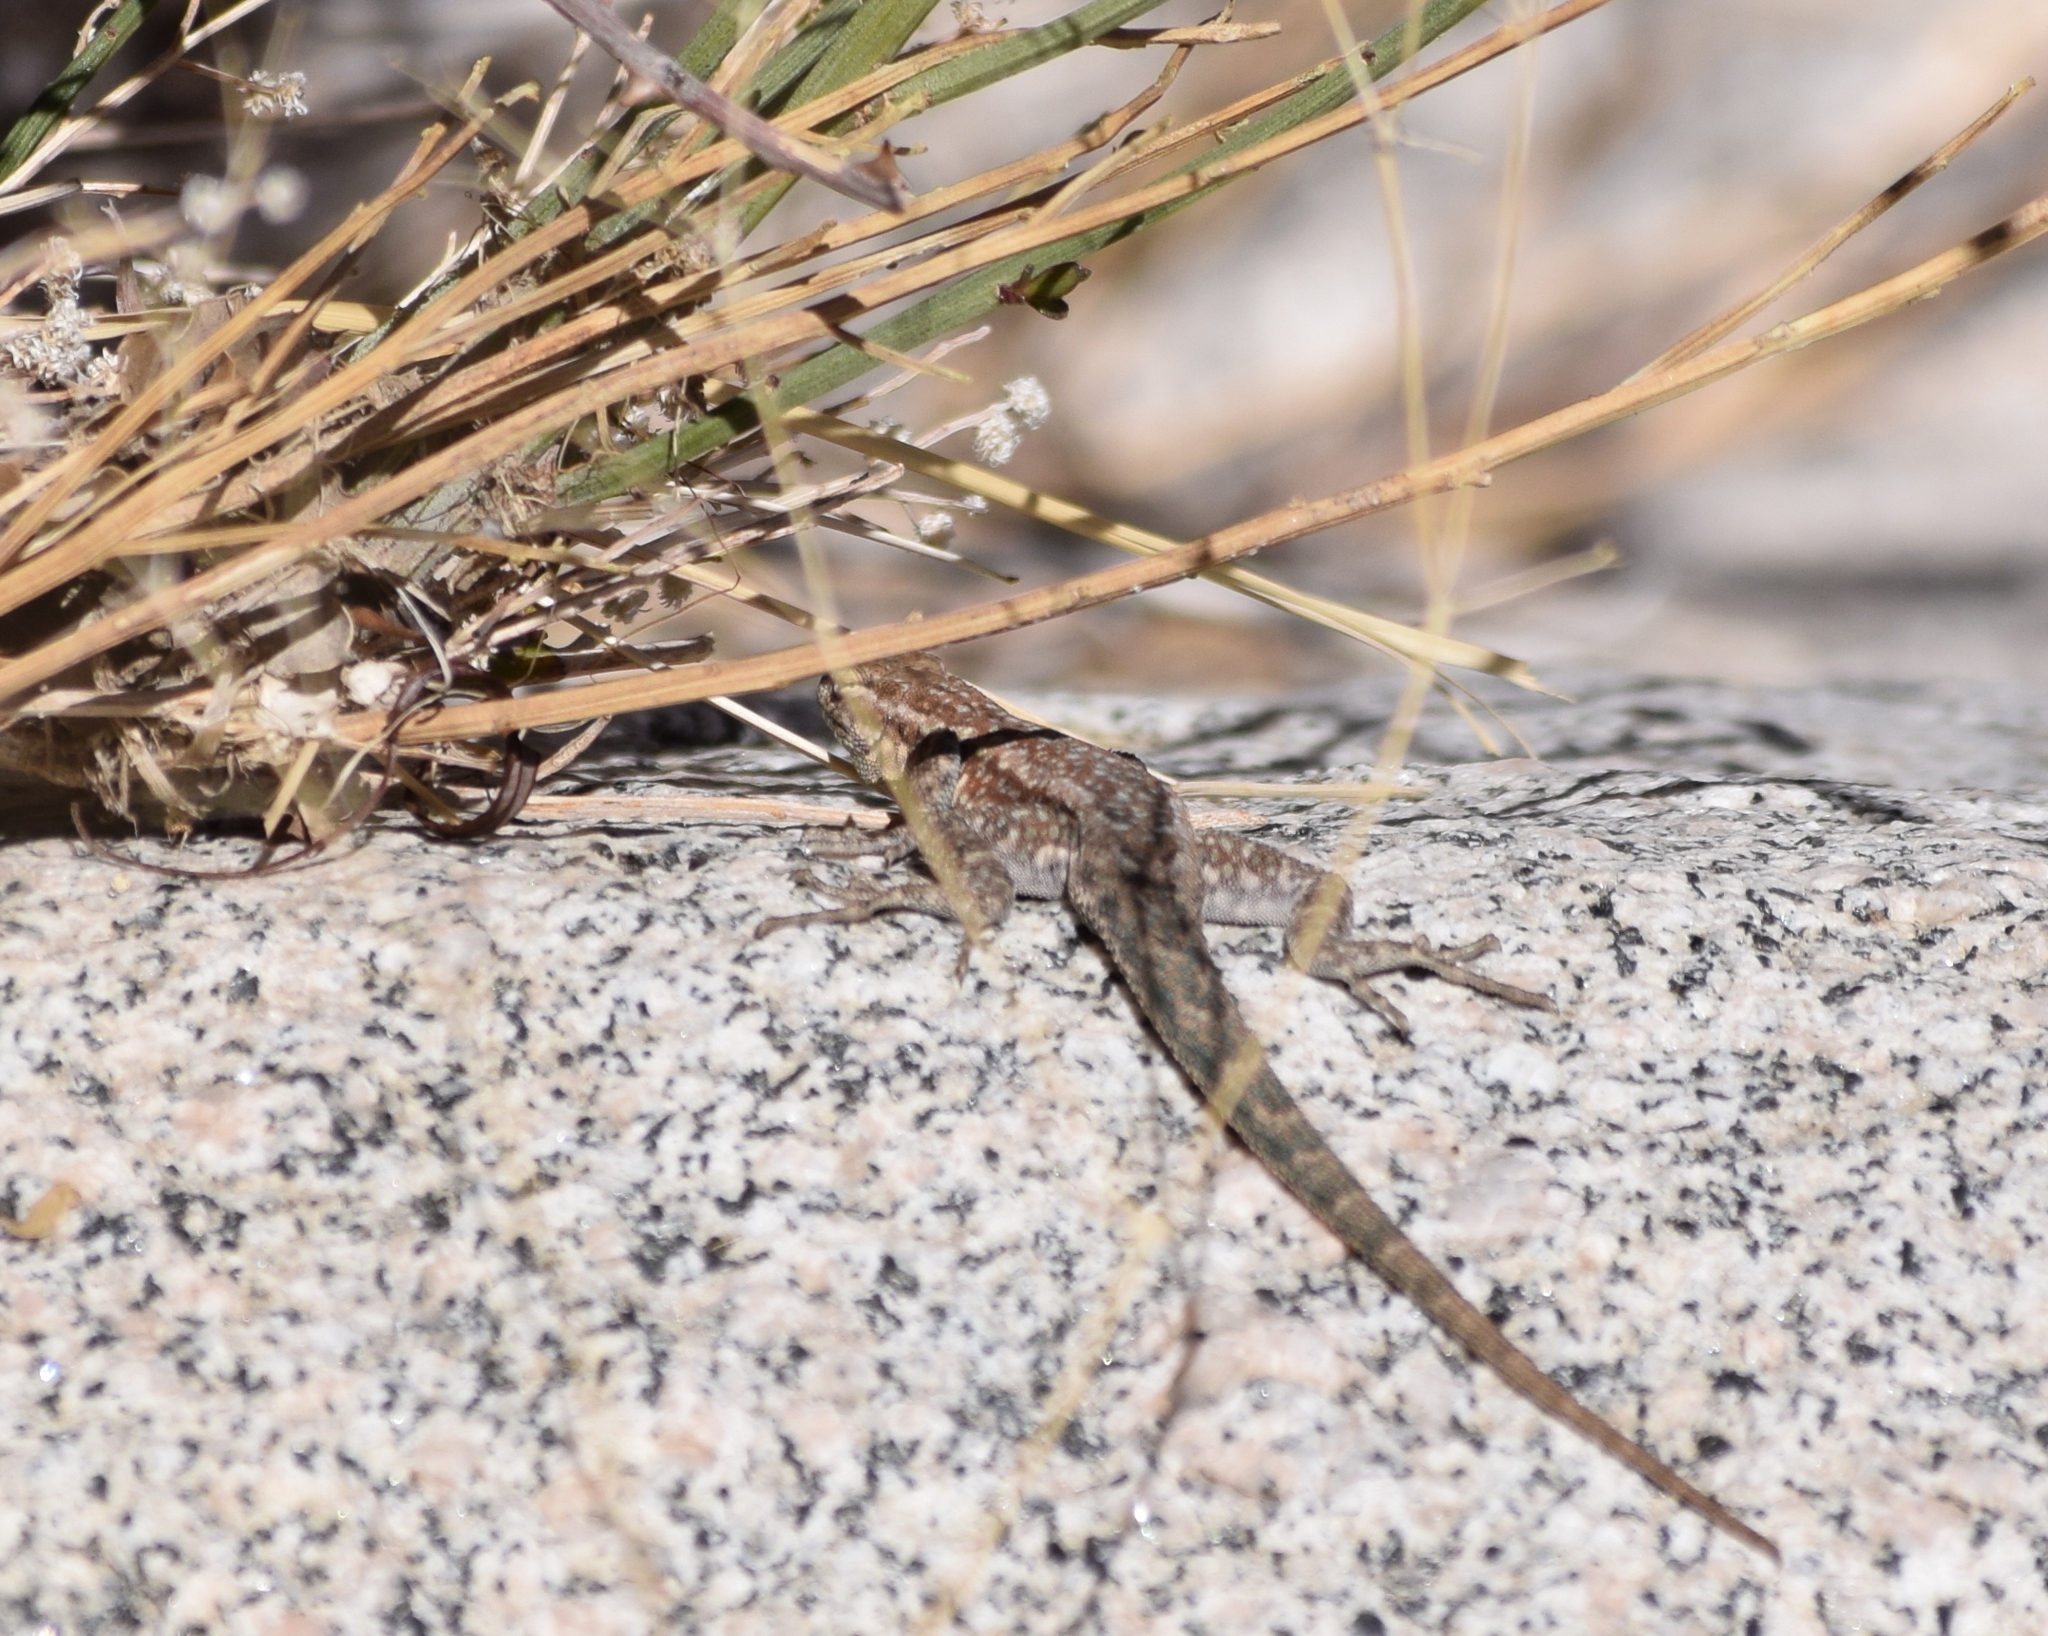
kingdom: Animalia
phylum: Chordata
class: Squamata
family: Phrynosomatidae
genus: Uta
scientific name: Uta stansburiana
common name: Side-blotched lizard
